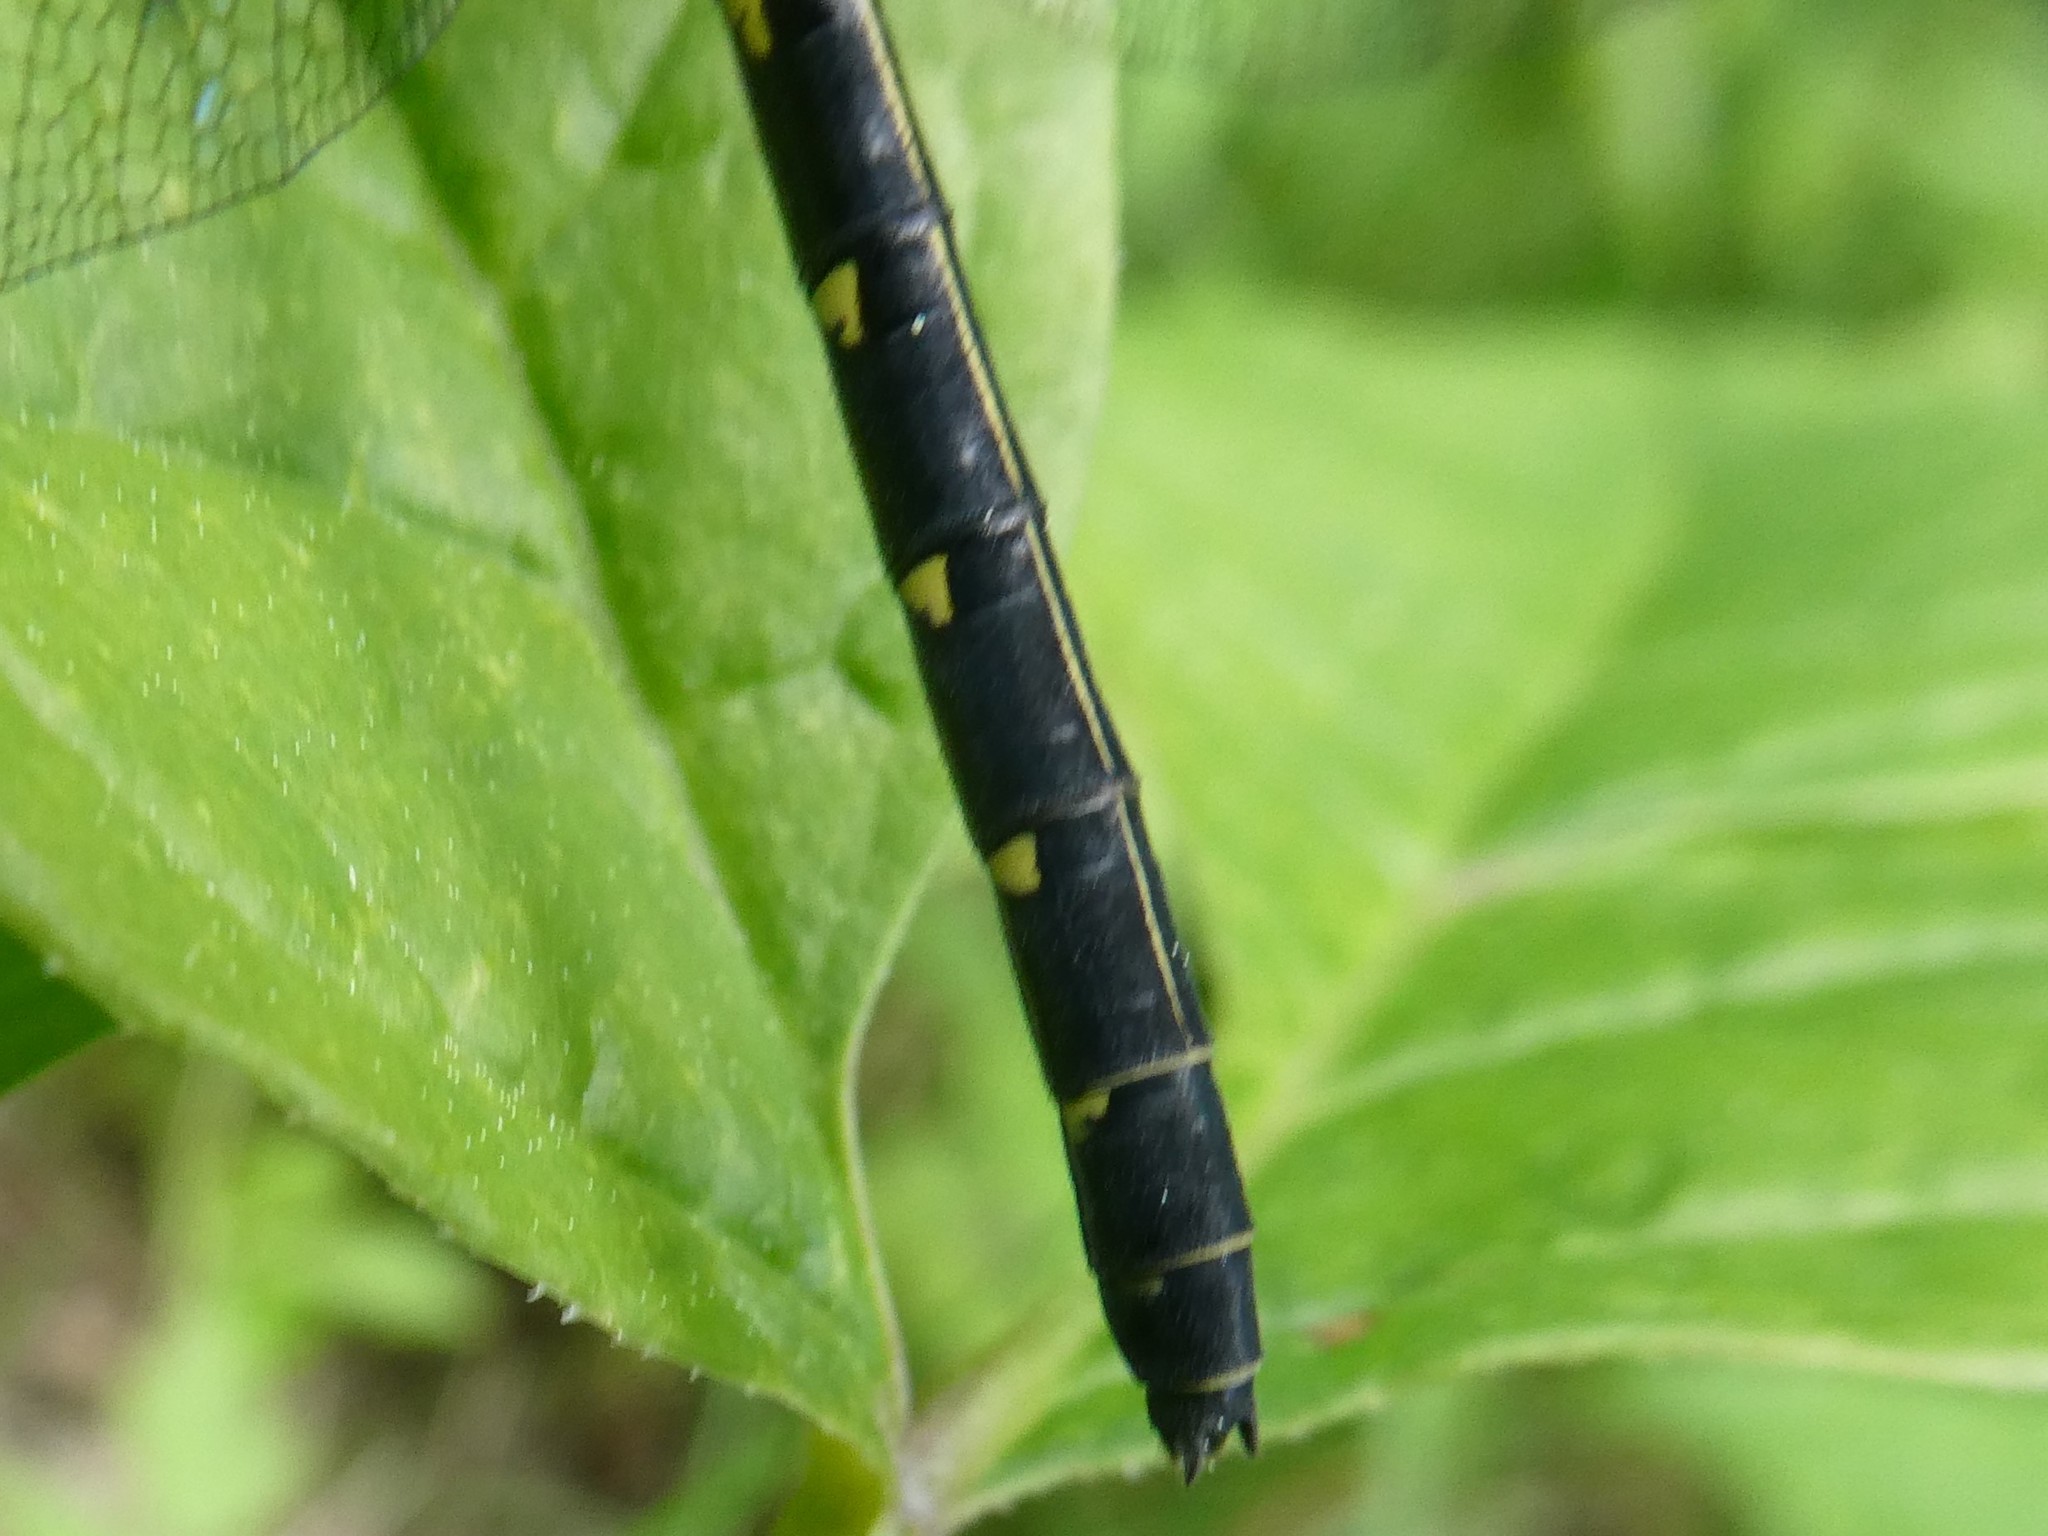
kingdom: Animalia
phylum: Arthropoda
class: Insecta
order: Odonata
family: Gomphidae
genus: Lanthus
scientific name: Lanthus parvulus
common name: Northern pygmy clubtail
